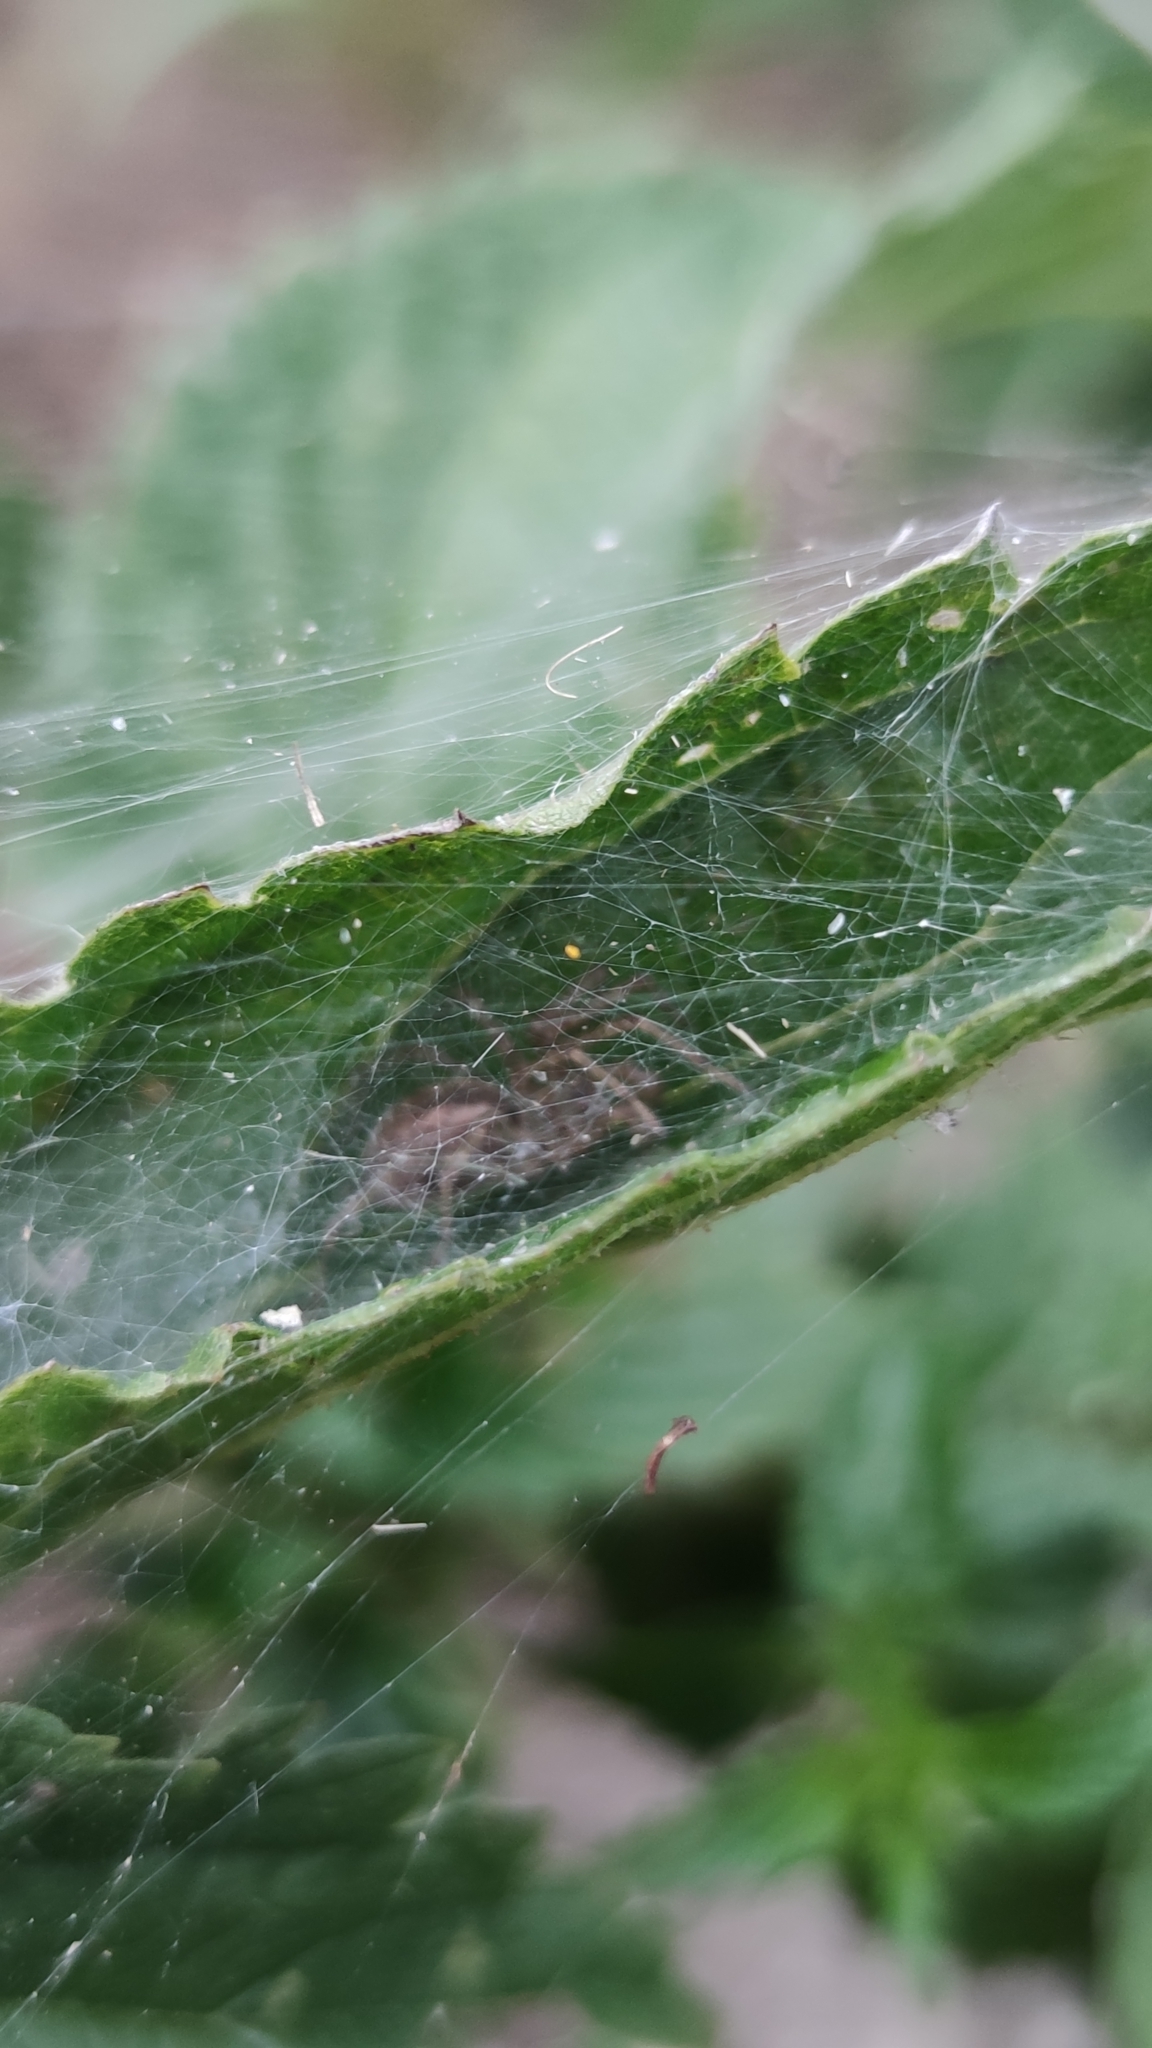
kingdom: Animalia
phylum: Arthropoda
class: Arachnida
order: Araneae
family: Agelenidae
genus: Allagelena
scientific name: Allagelena gracilens
